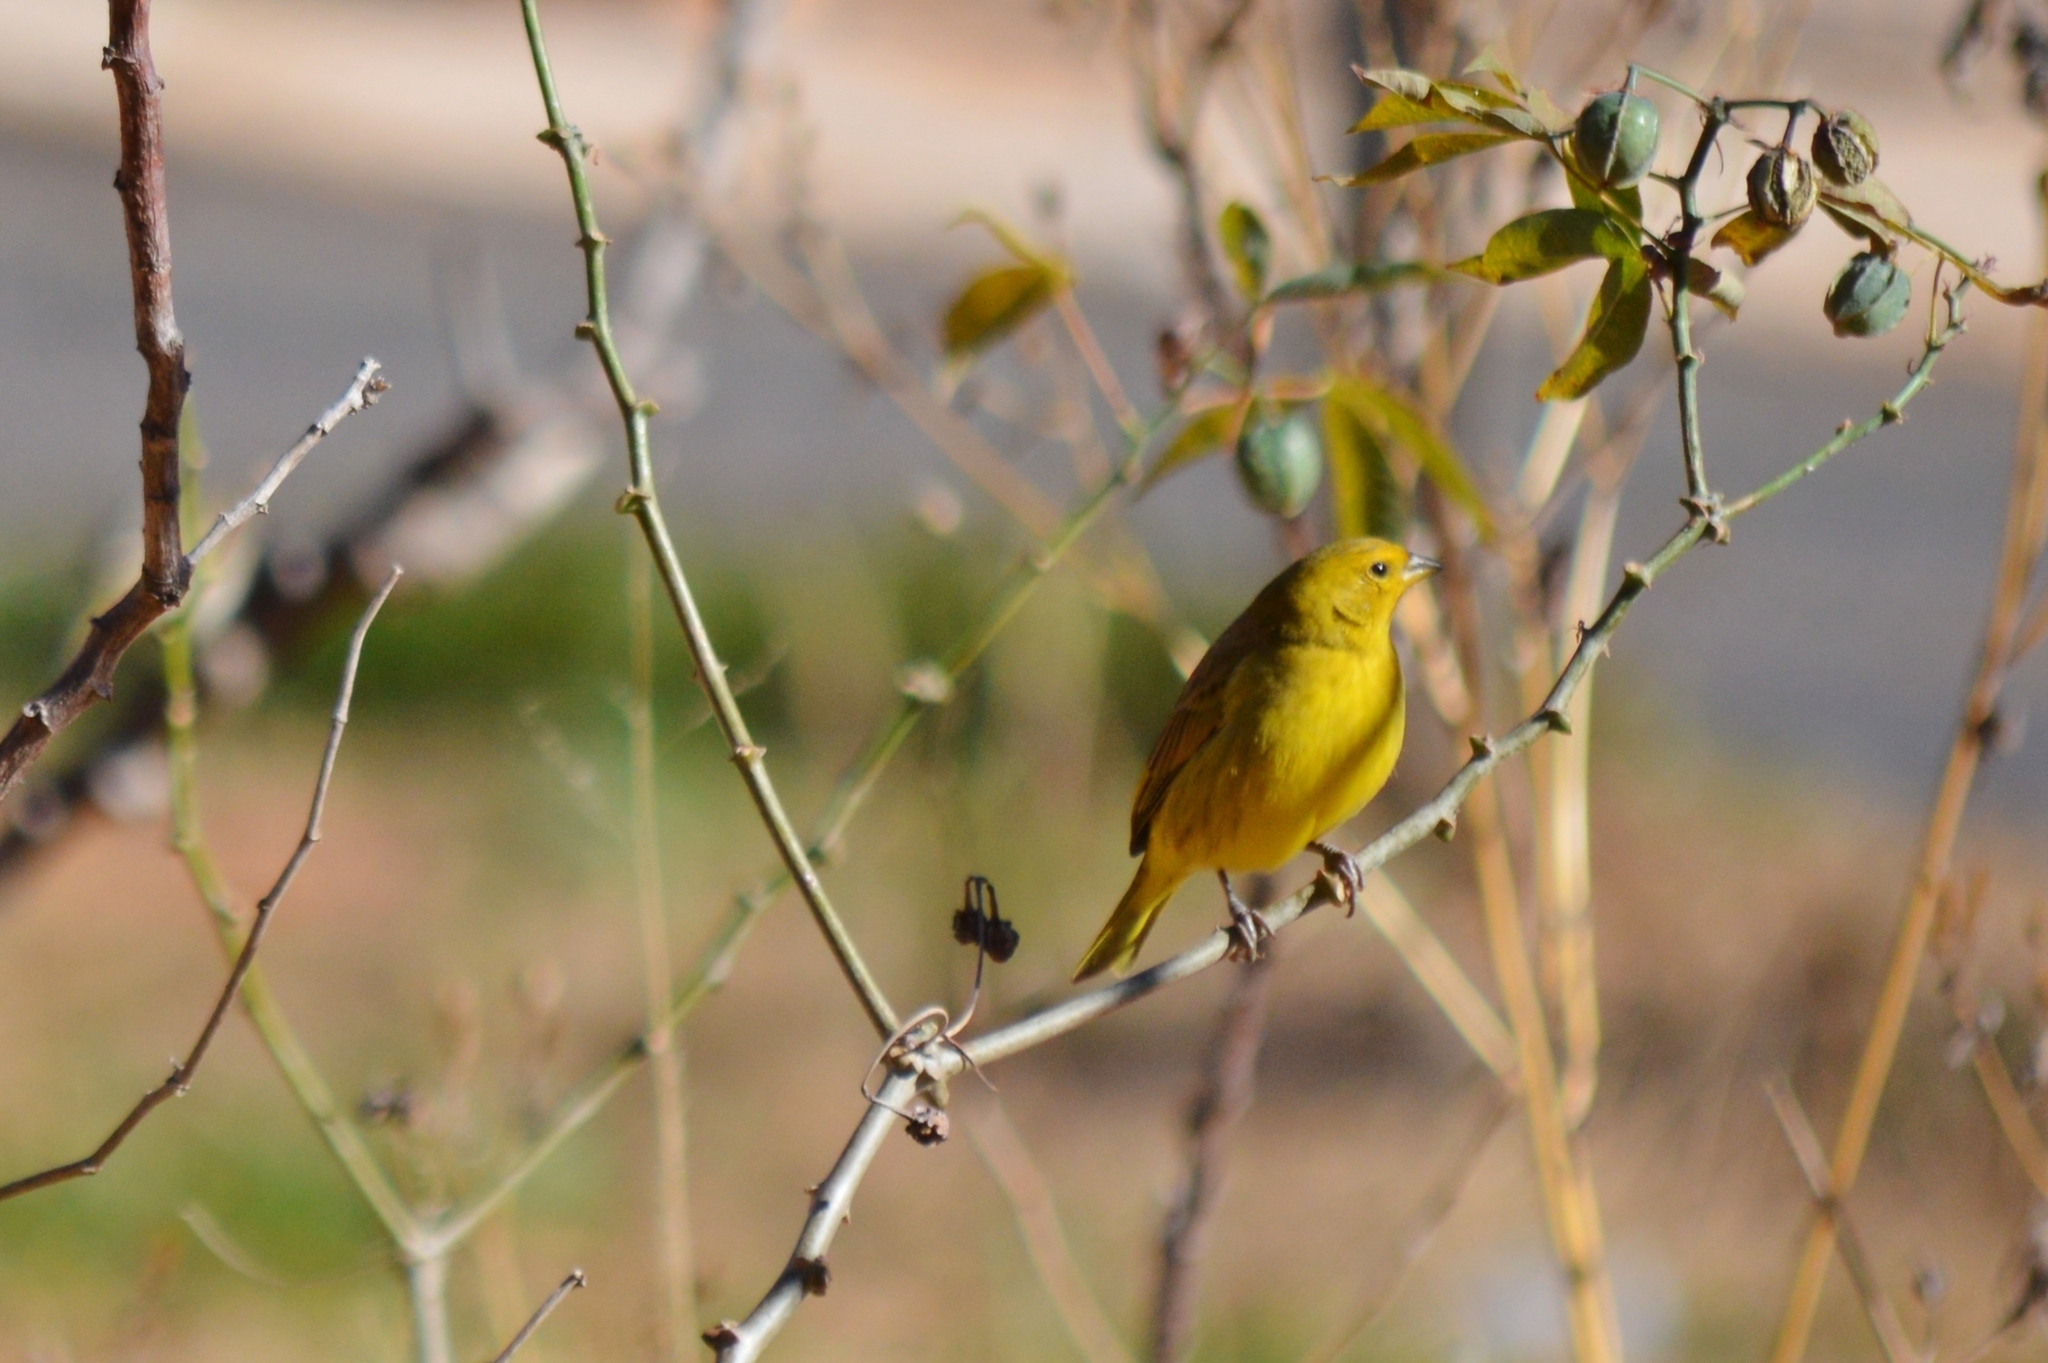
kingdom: Animalia
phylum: Chordata
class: Aves
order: Passeriformes
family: Thraupidae
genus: Sicalis
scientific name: Sicalis flaveola
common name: Saffron finch
